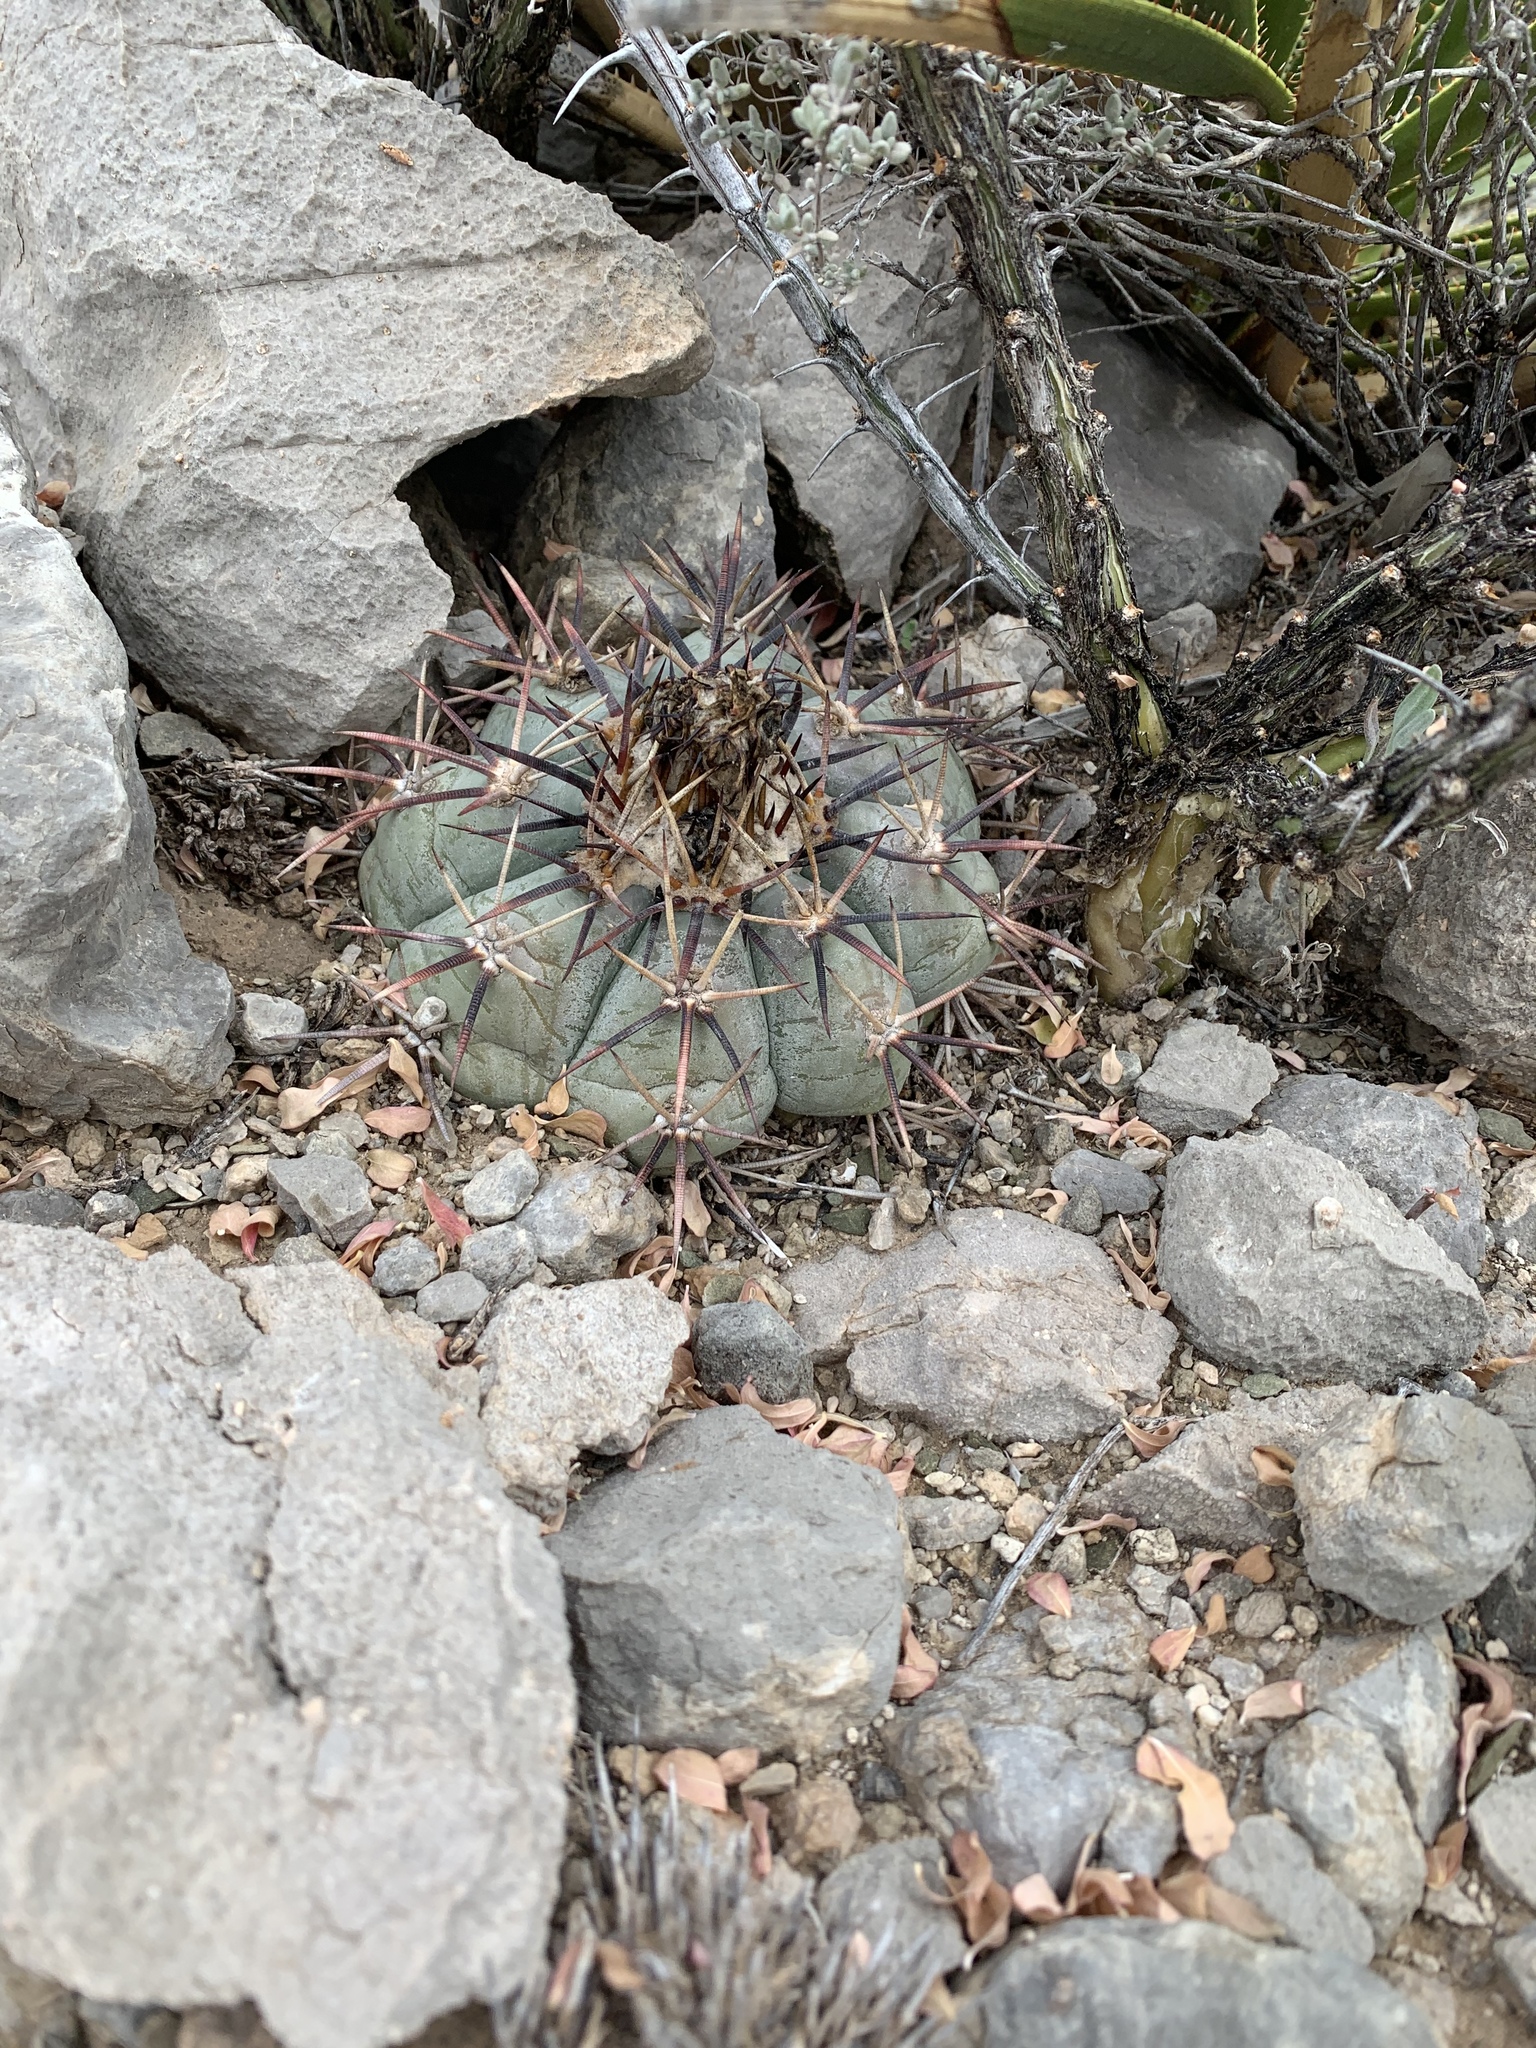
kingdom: Plantae
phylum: Tracheophyta
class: Magnoliopsida
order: Caryophyllales
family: Cactaceae
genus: Echinocactus
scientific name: Echinocactus horizonthalonius
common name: Devilshead
